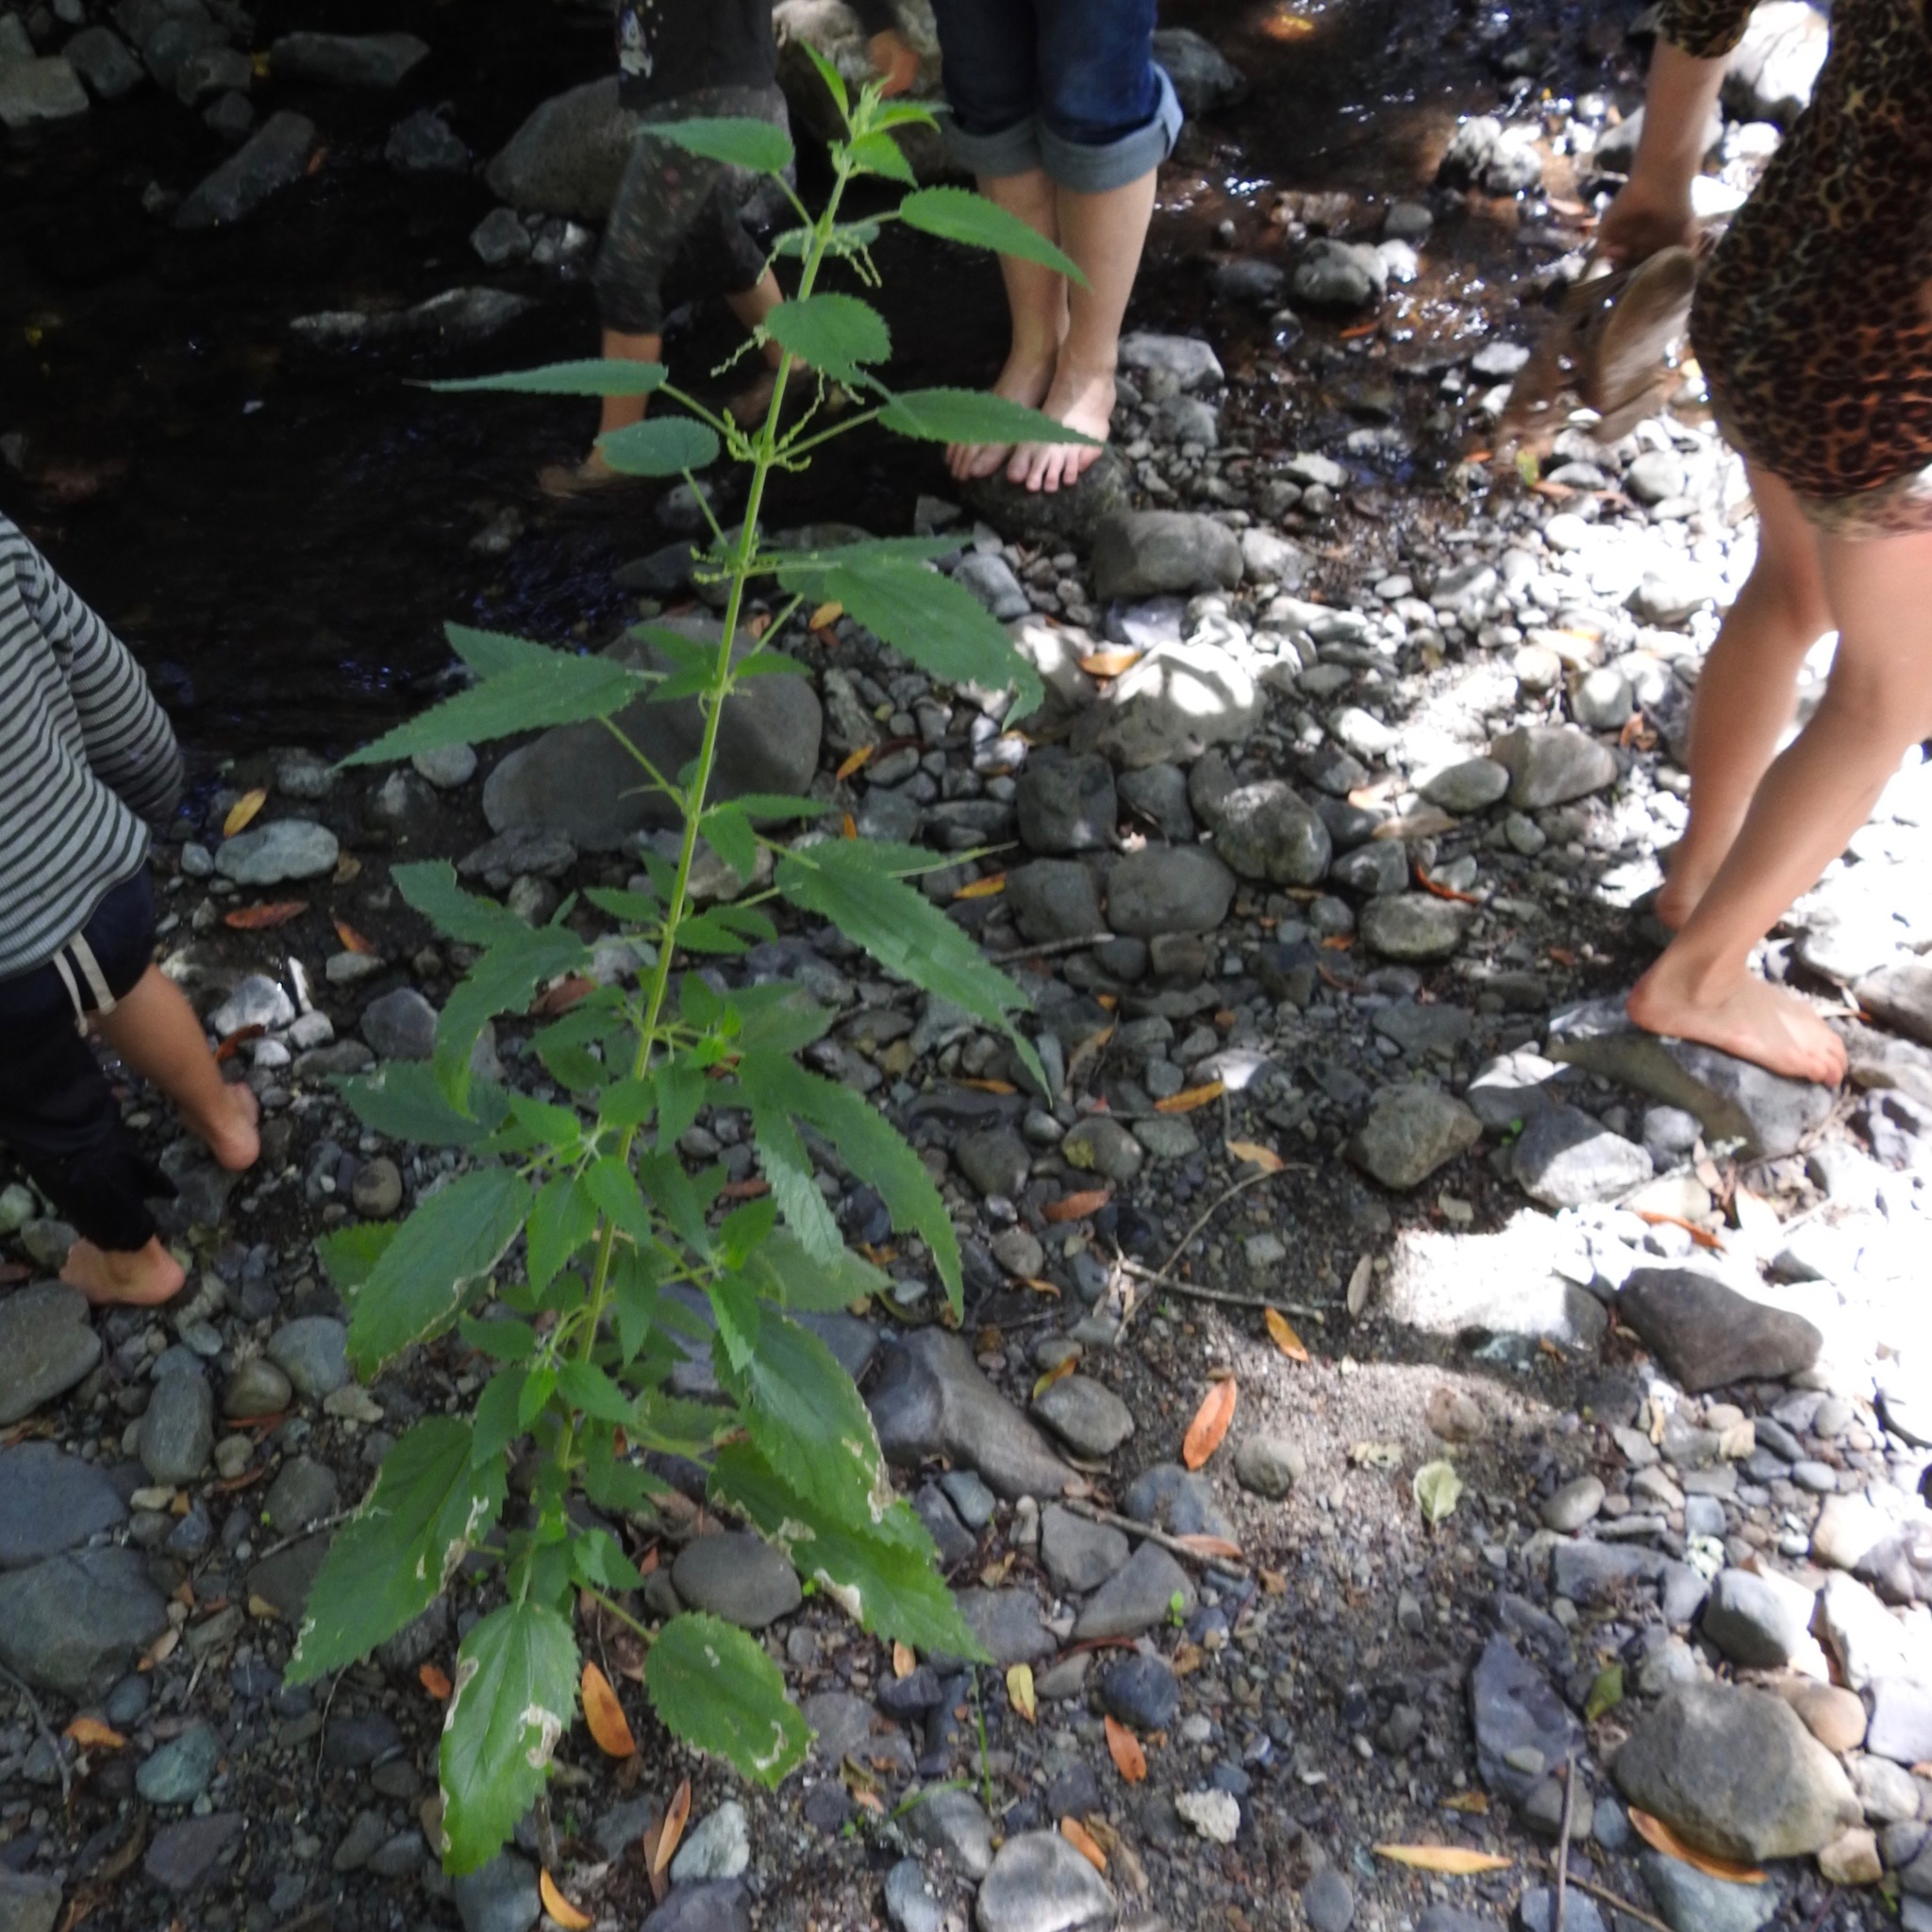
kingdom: Plantae
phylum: Tracheophyta
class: Magnoliopsida
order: Rosales
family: Urticaceae
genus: Urtica
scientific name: Urtica dioica
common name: Common nettle
